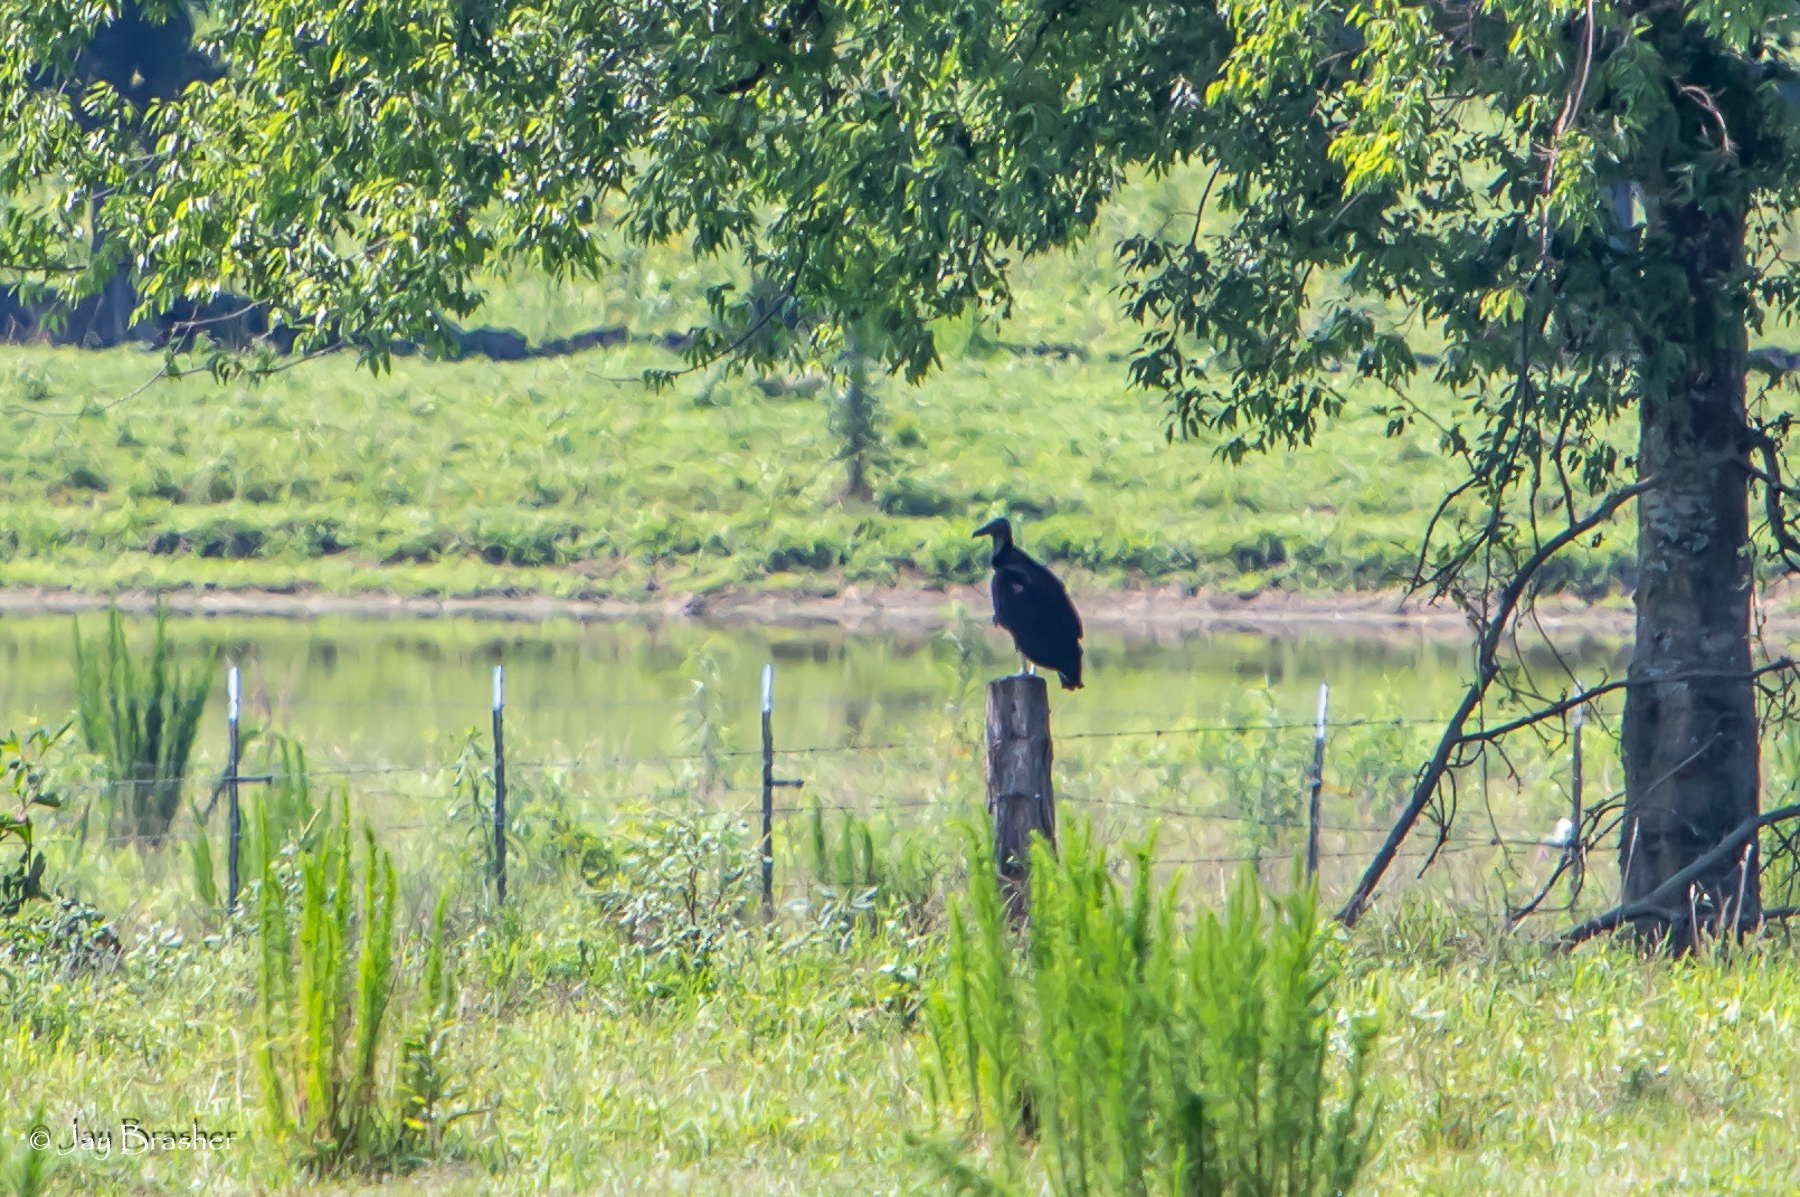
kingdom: Animalia
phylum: Chordata
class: Aves
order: Accipitriformes
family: Cathartidae
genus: Coragyps
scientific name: Coragyps atratus
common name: Black vulture
